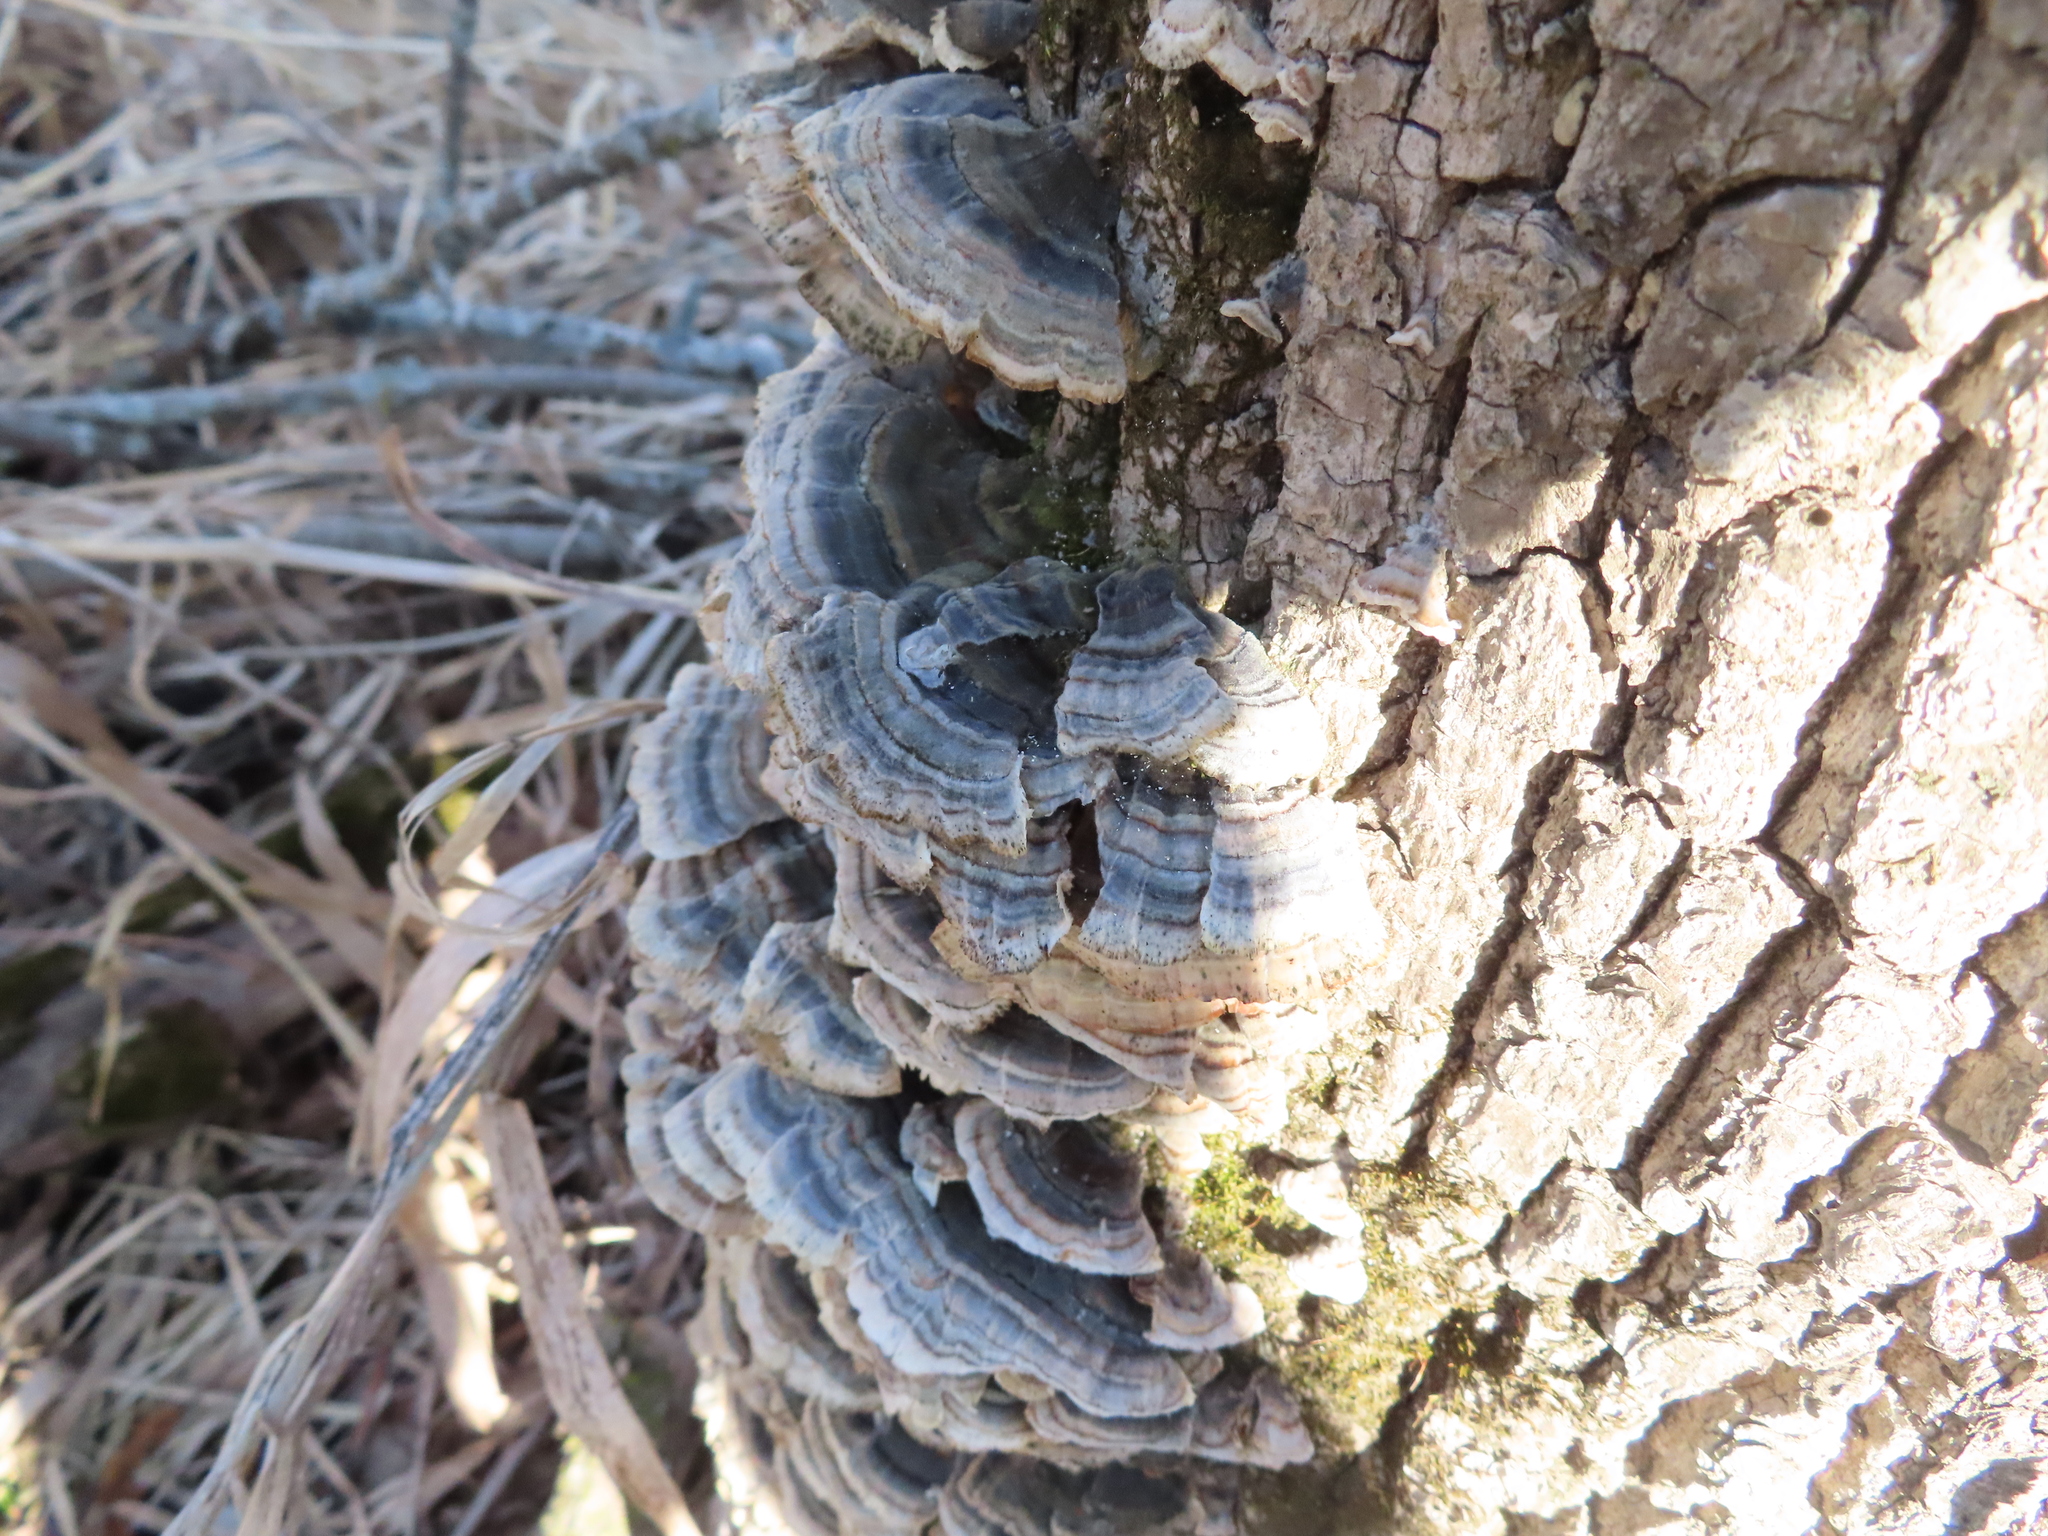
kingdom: Fungi
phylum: Basidiomycota
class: Agaricomycetes
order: Polyporales
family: Polyporaceae
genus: Trametes
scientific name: Trametes versicolor
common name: Turkeytail
